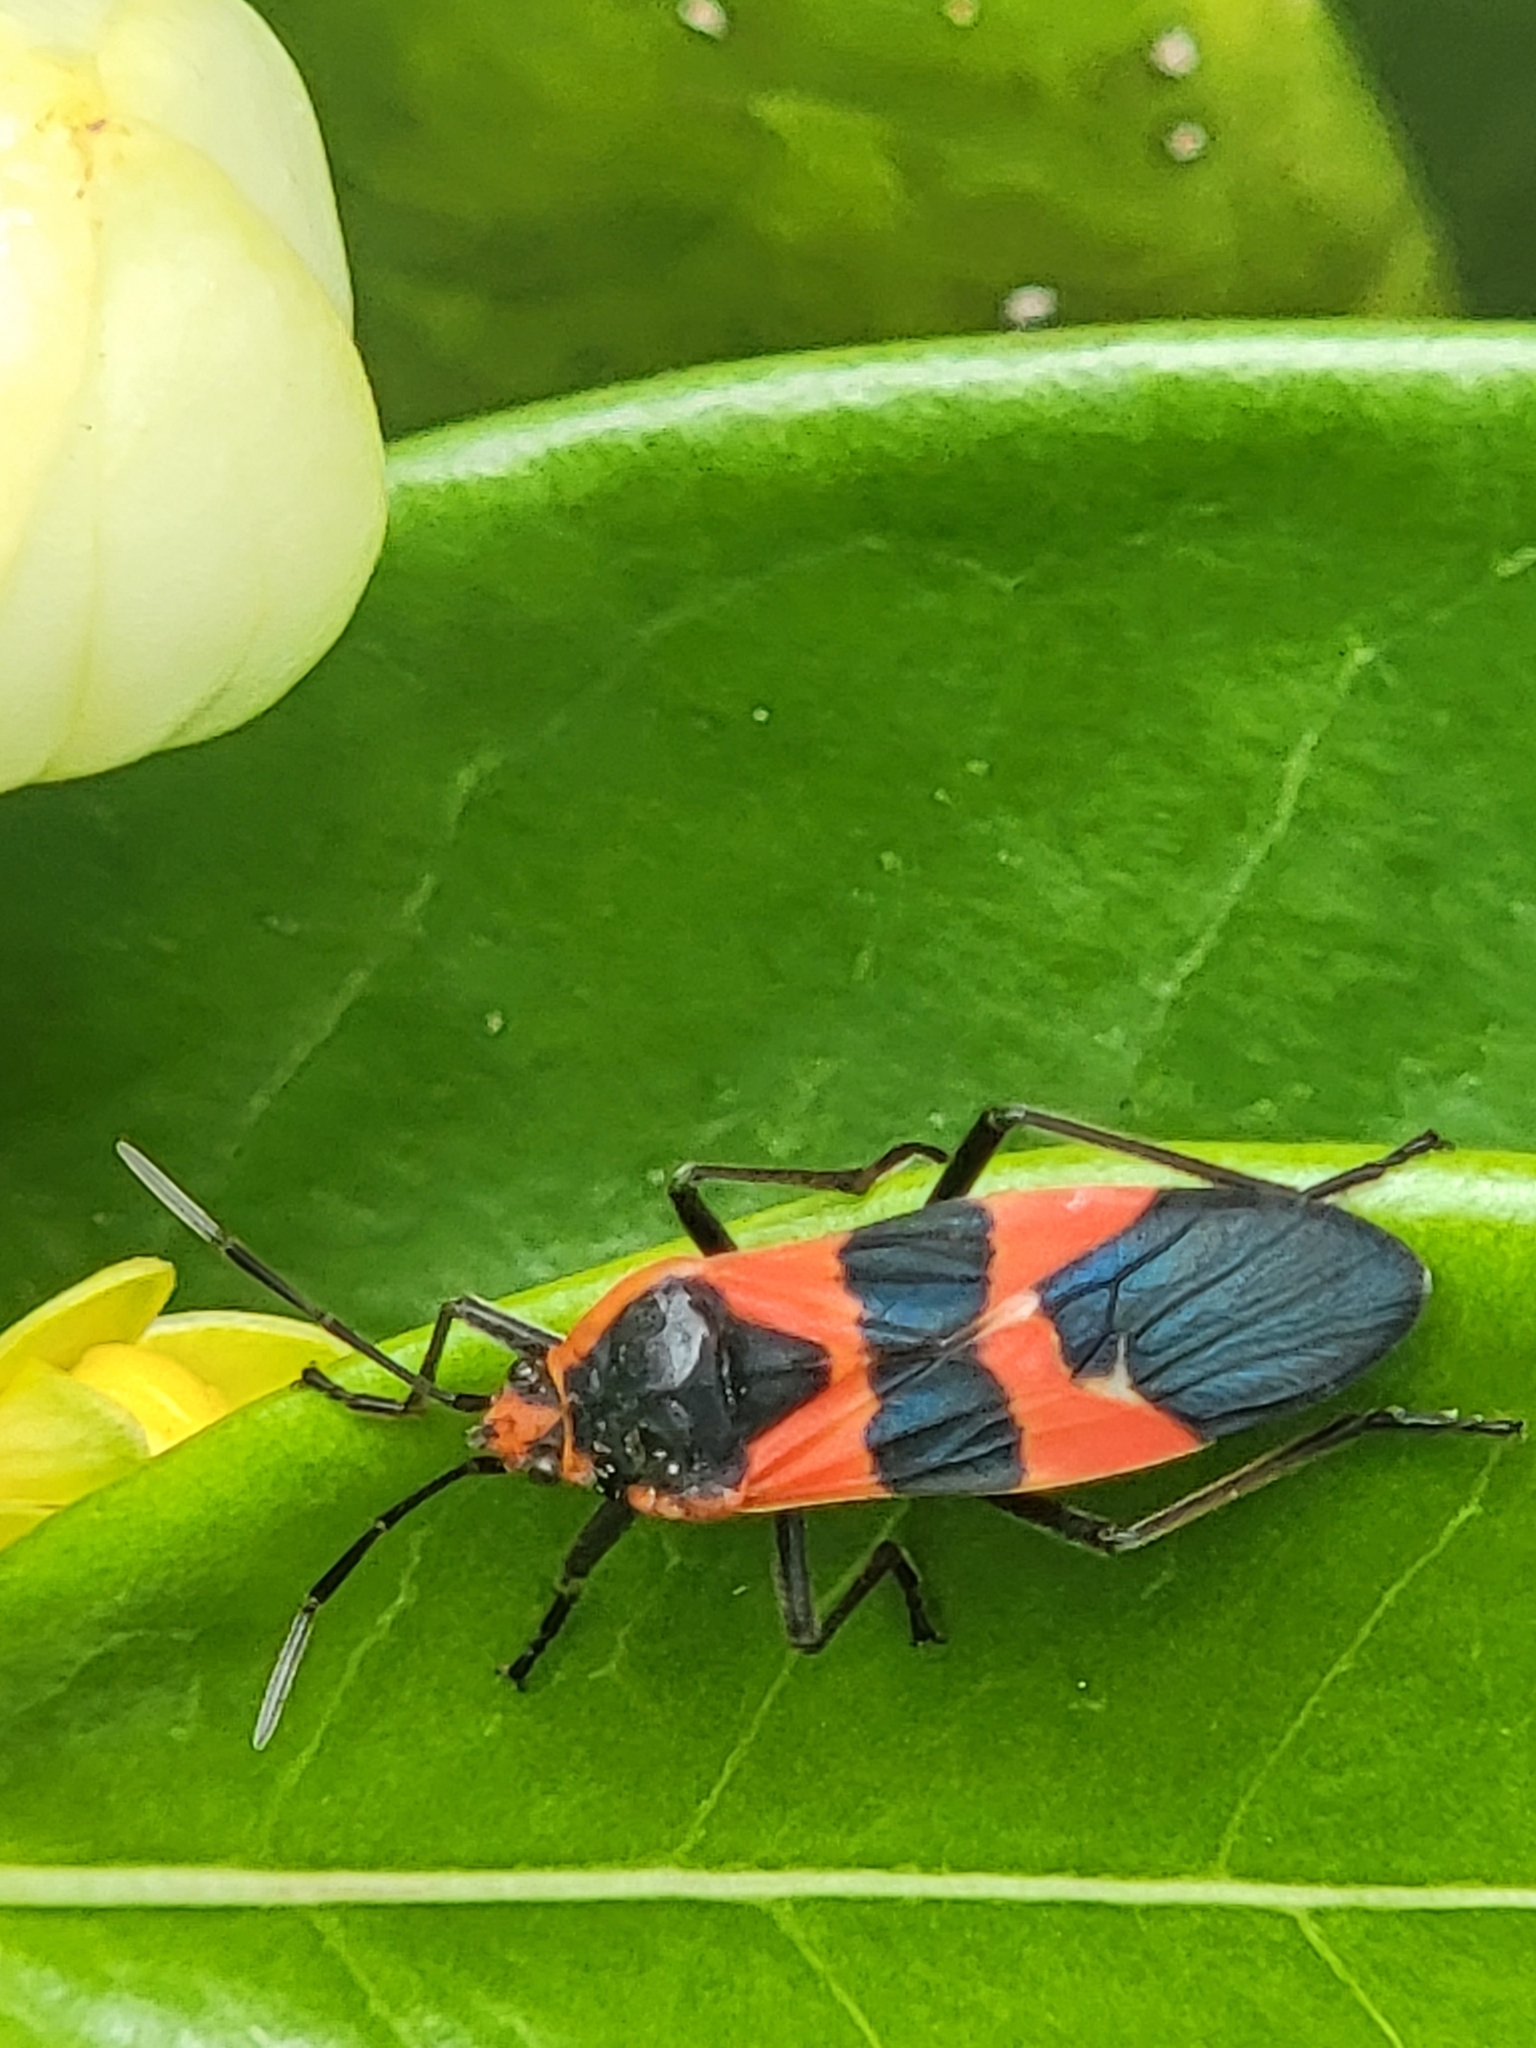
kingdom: Animalia
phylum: Arthropoda
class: Insecta
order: Hemiptera
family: Lygaeidae
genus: Oncopeltus
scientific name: Oncopeltus fasciatus
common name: Large milkweed bug
